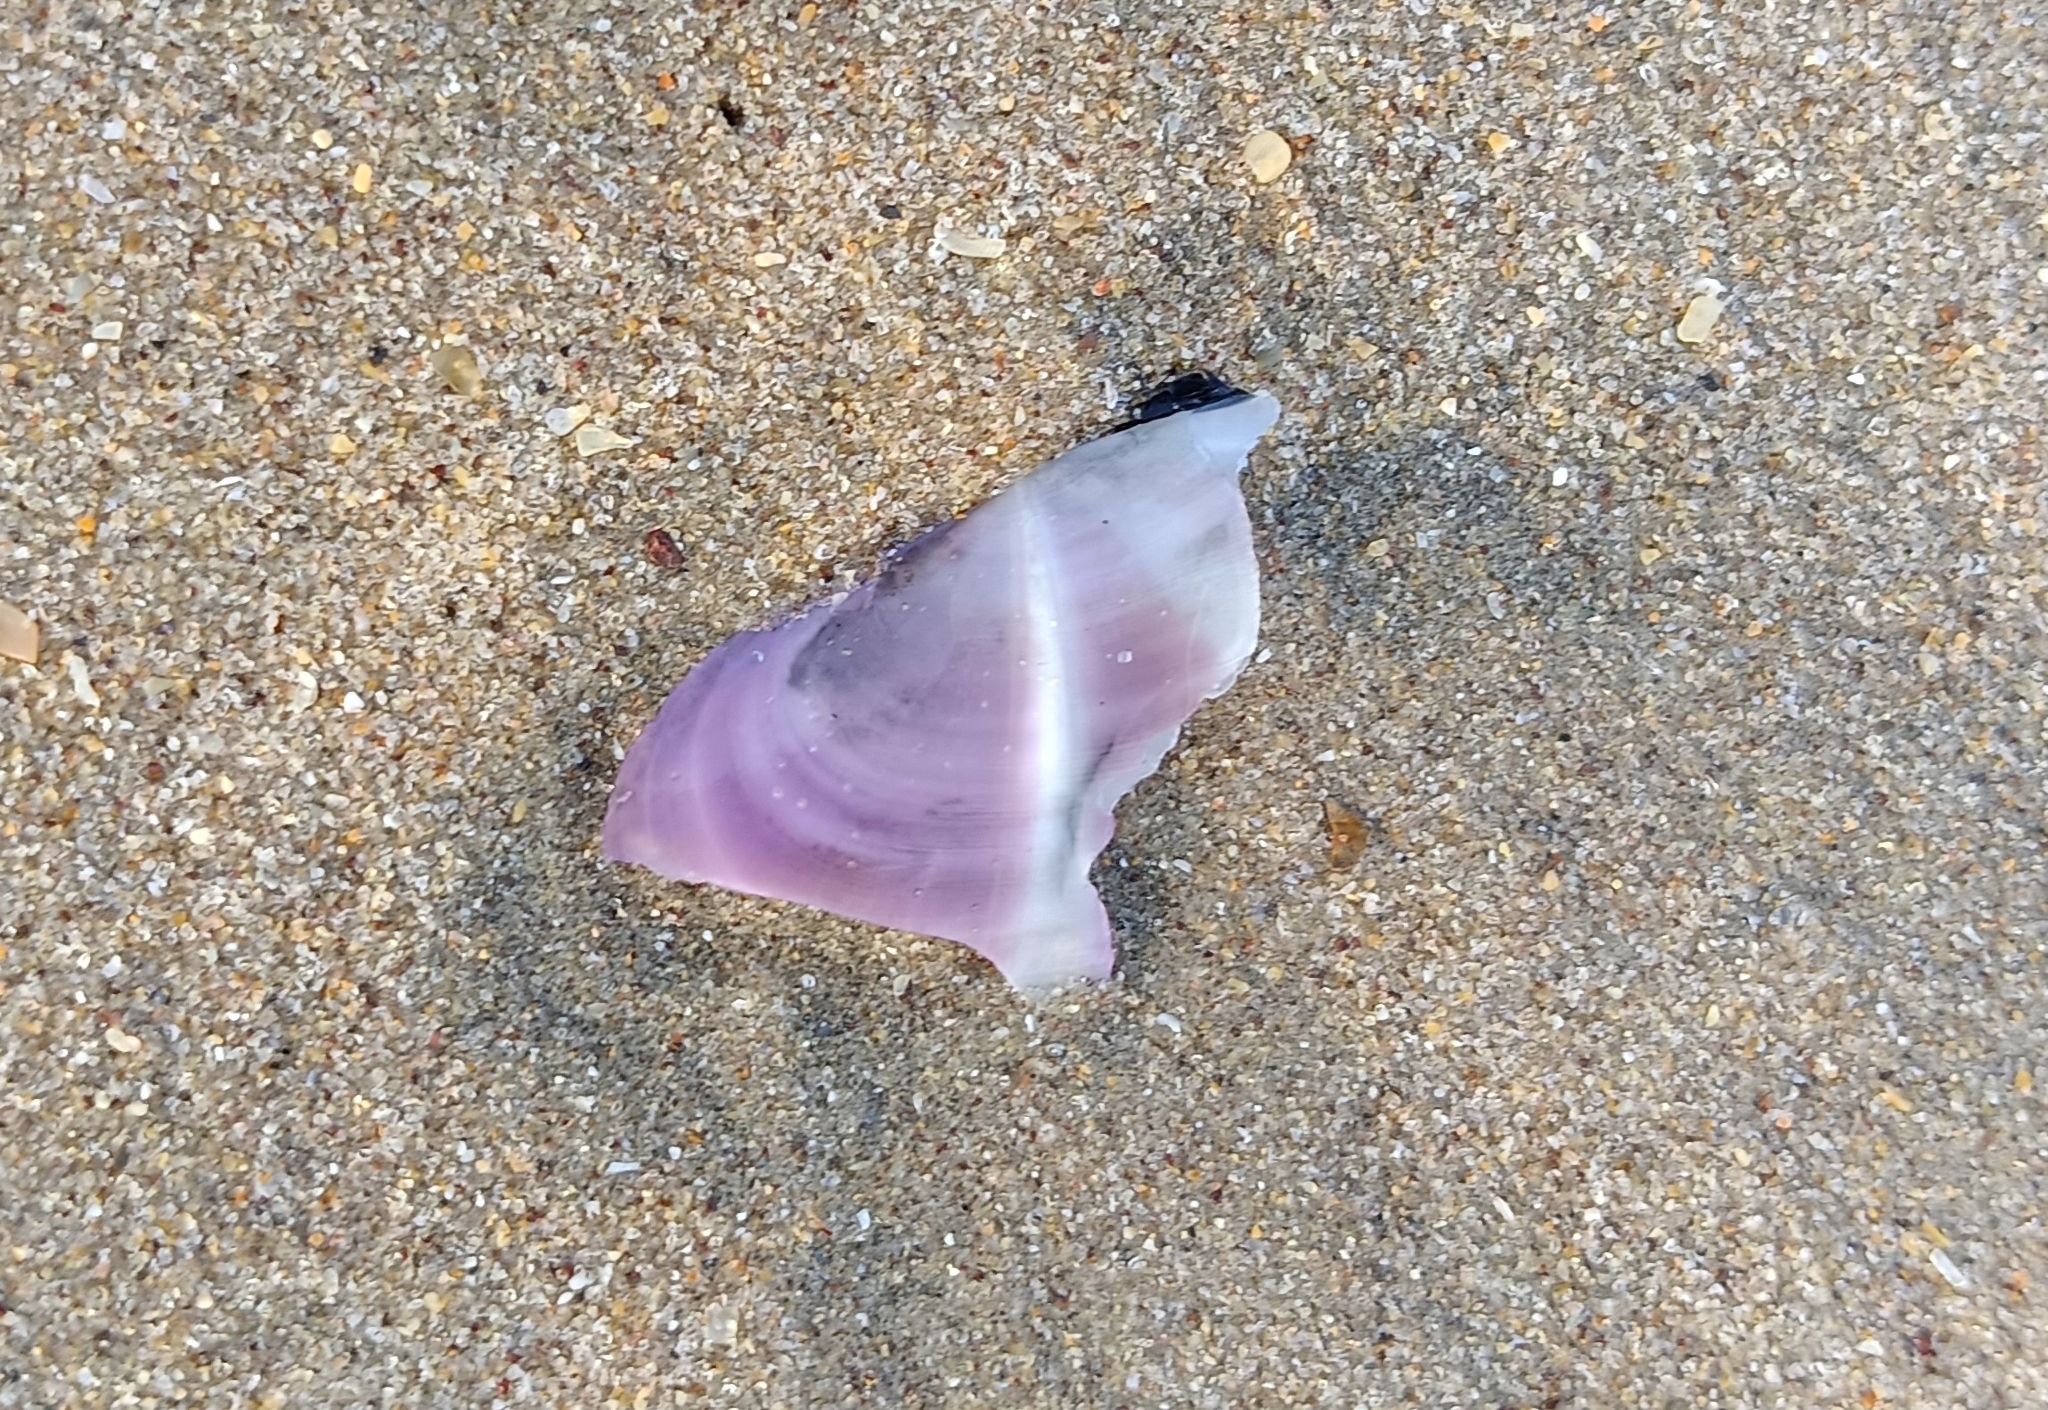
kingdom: Animalia
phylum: Mollusca
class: Bivalvia
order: Adapedonta
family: Pharidae
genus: Siliqua
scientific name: Siliqua radiata
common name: Sunset razor clam
